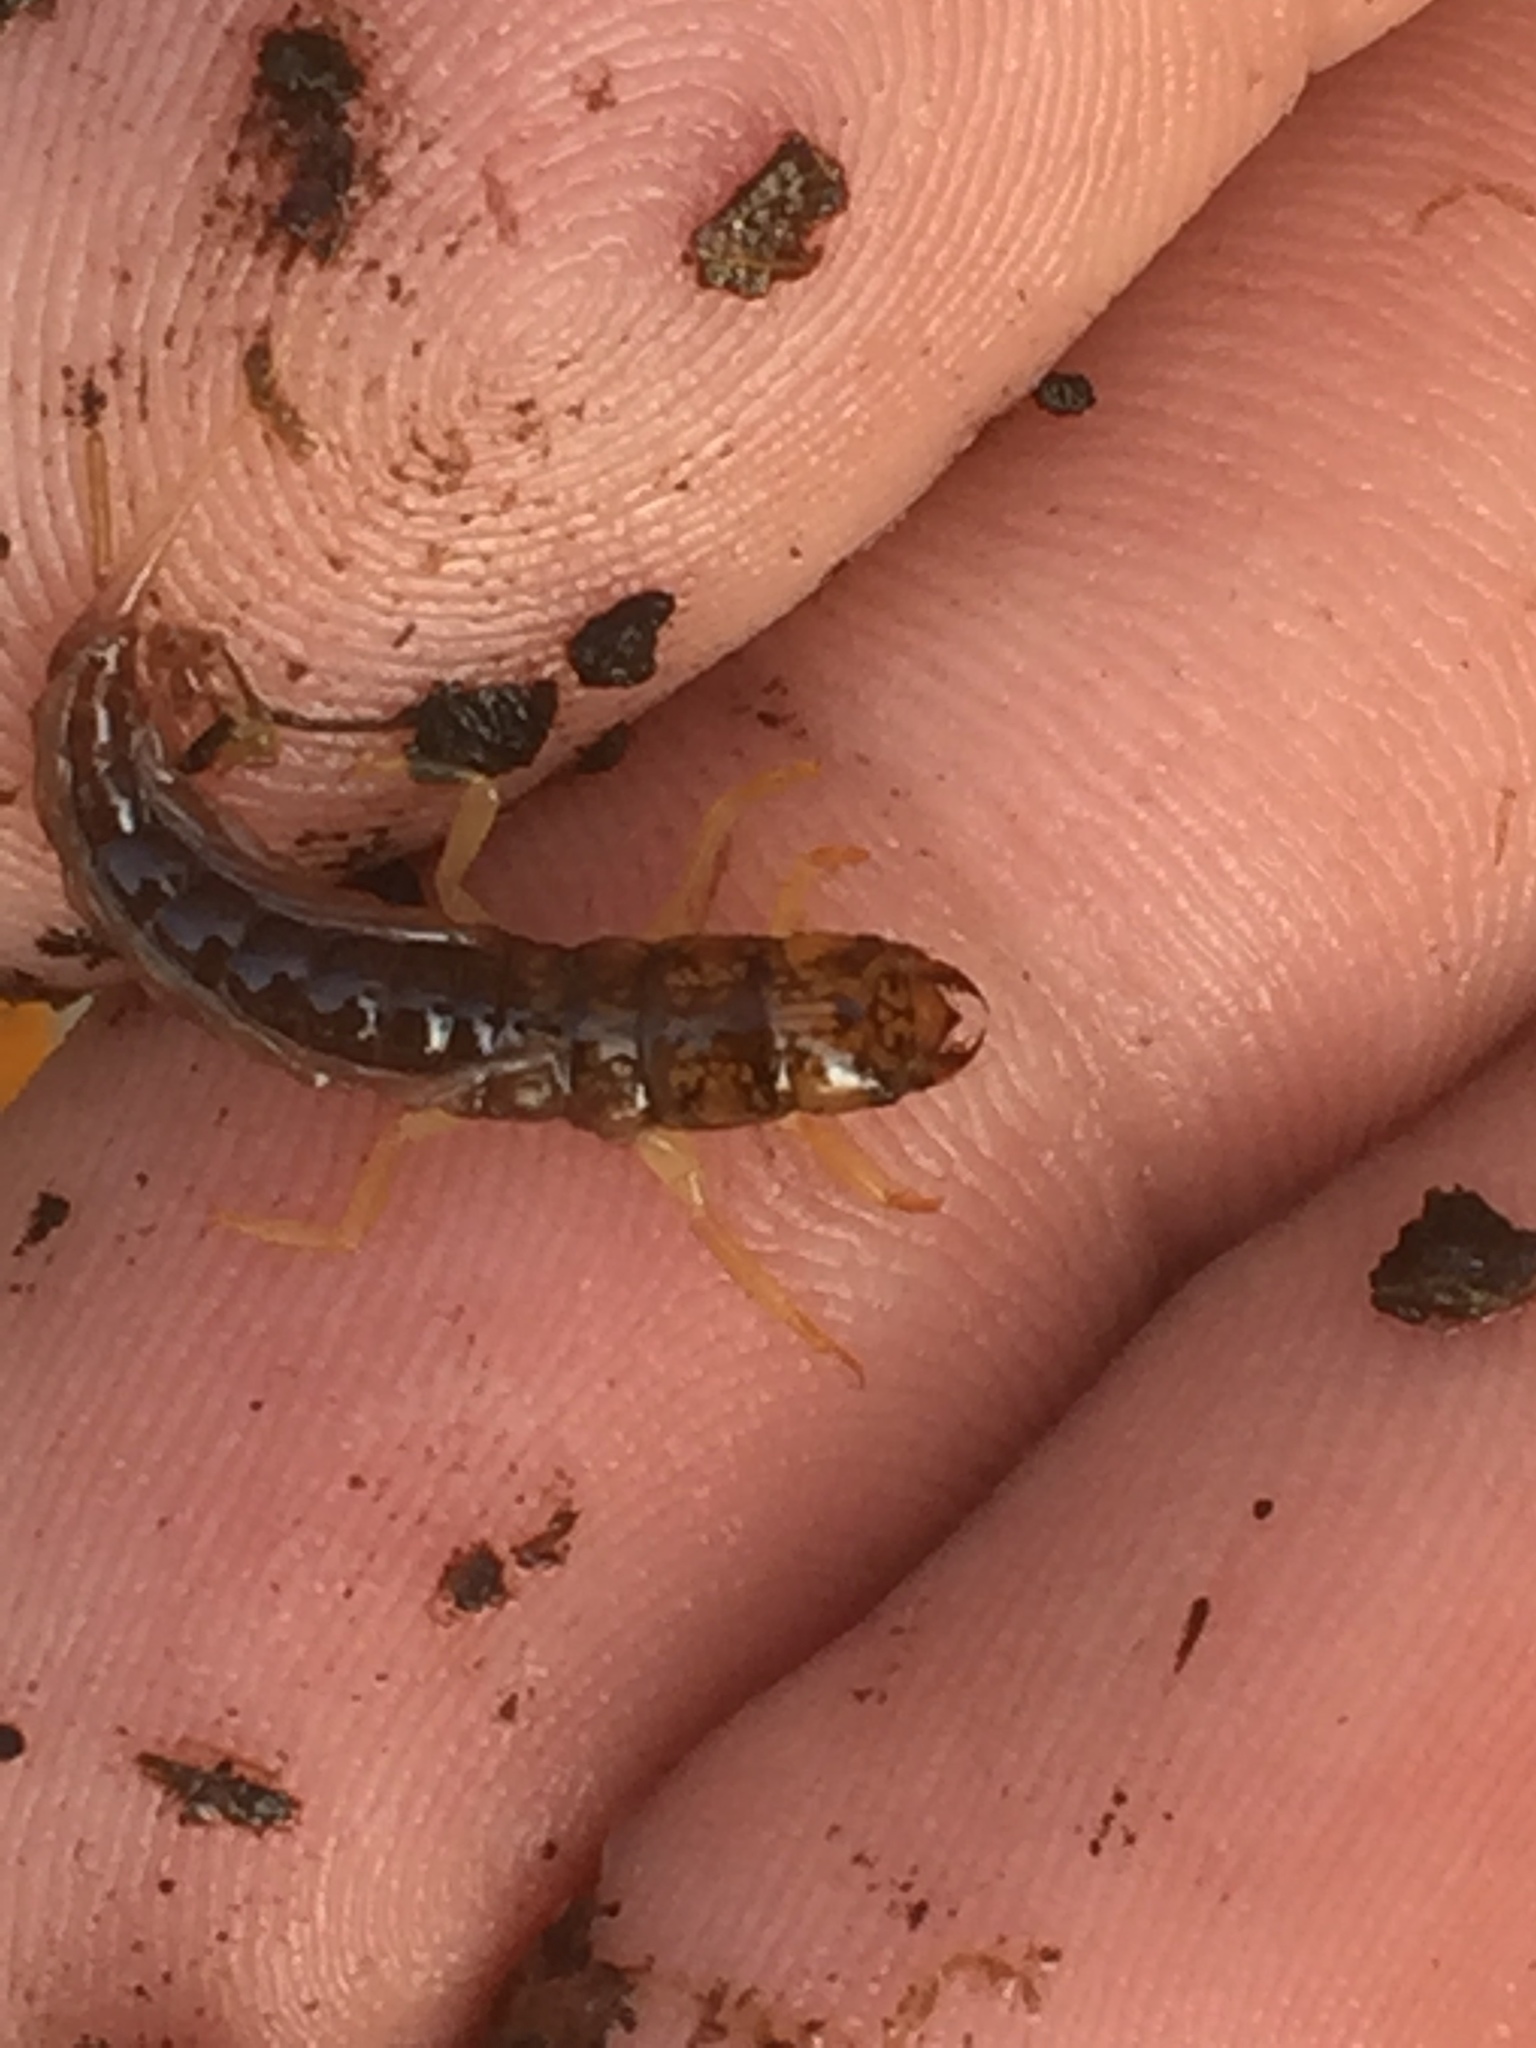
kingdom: Animalia
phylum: Arthropoda
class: Insecta
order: Megaloptera
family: Sialidae
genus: Sialis
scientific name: Sialis
